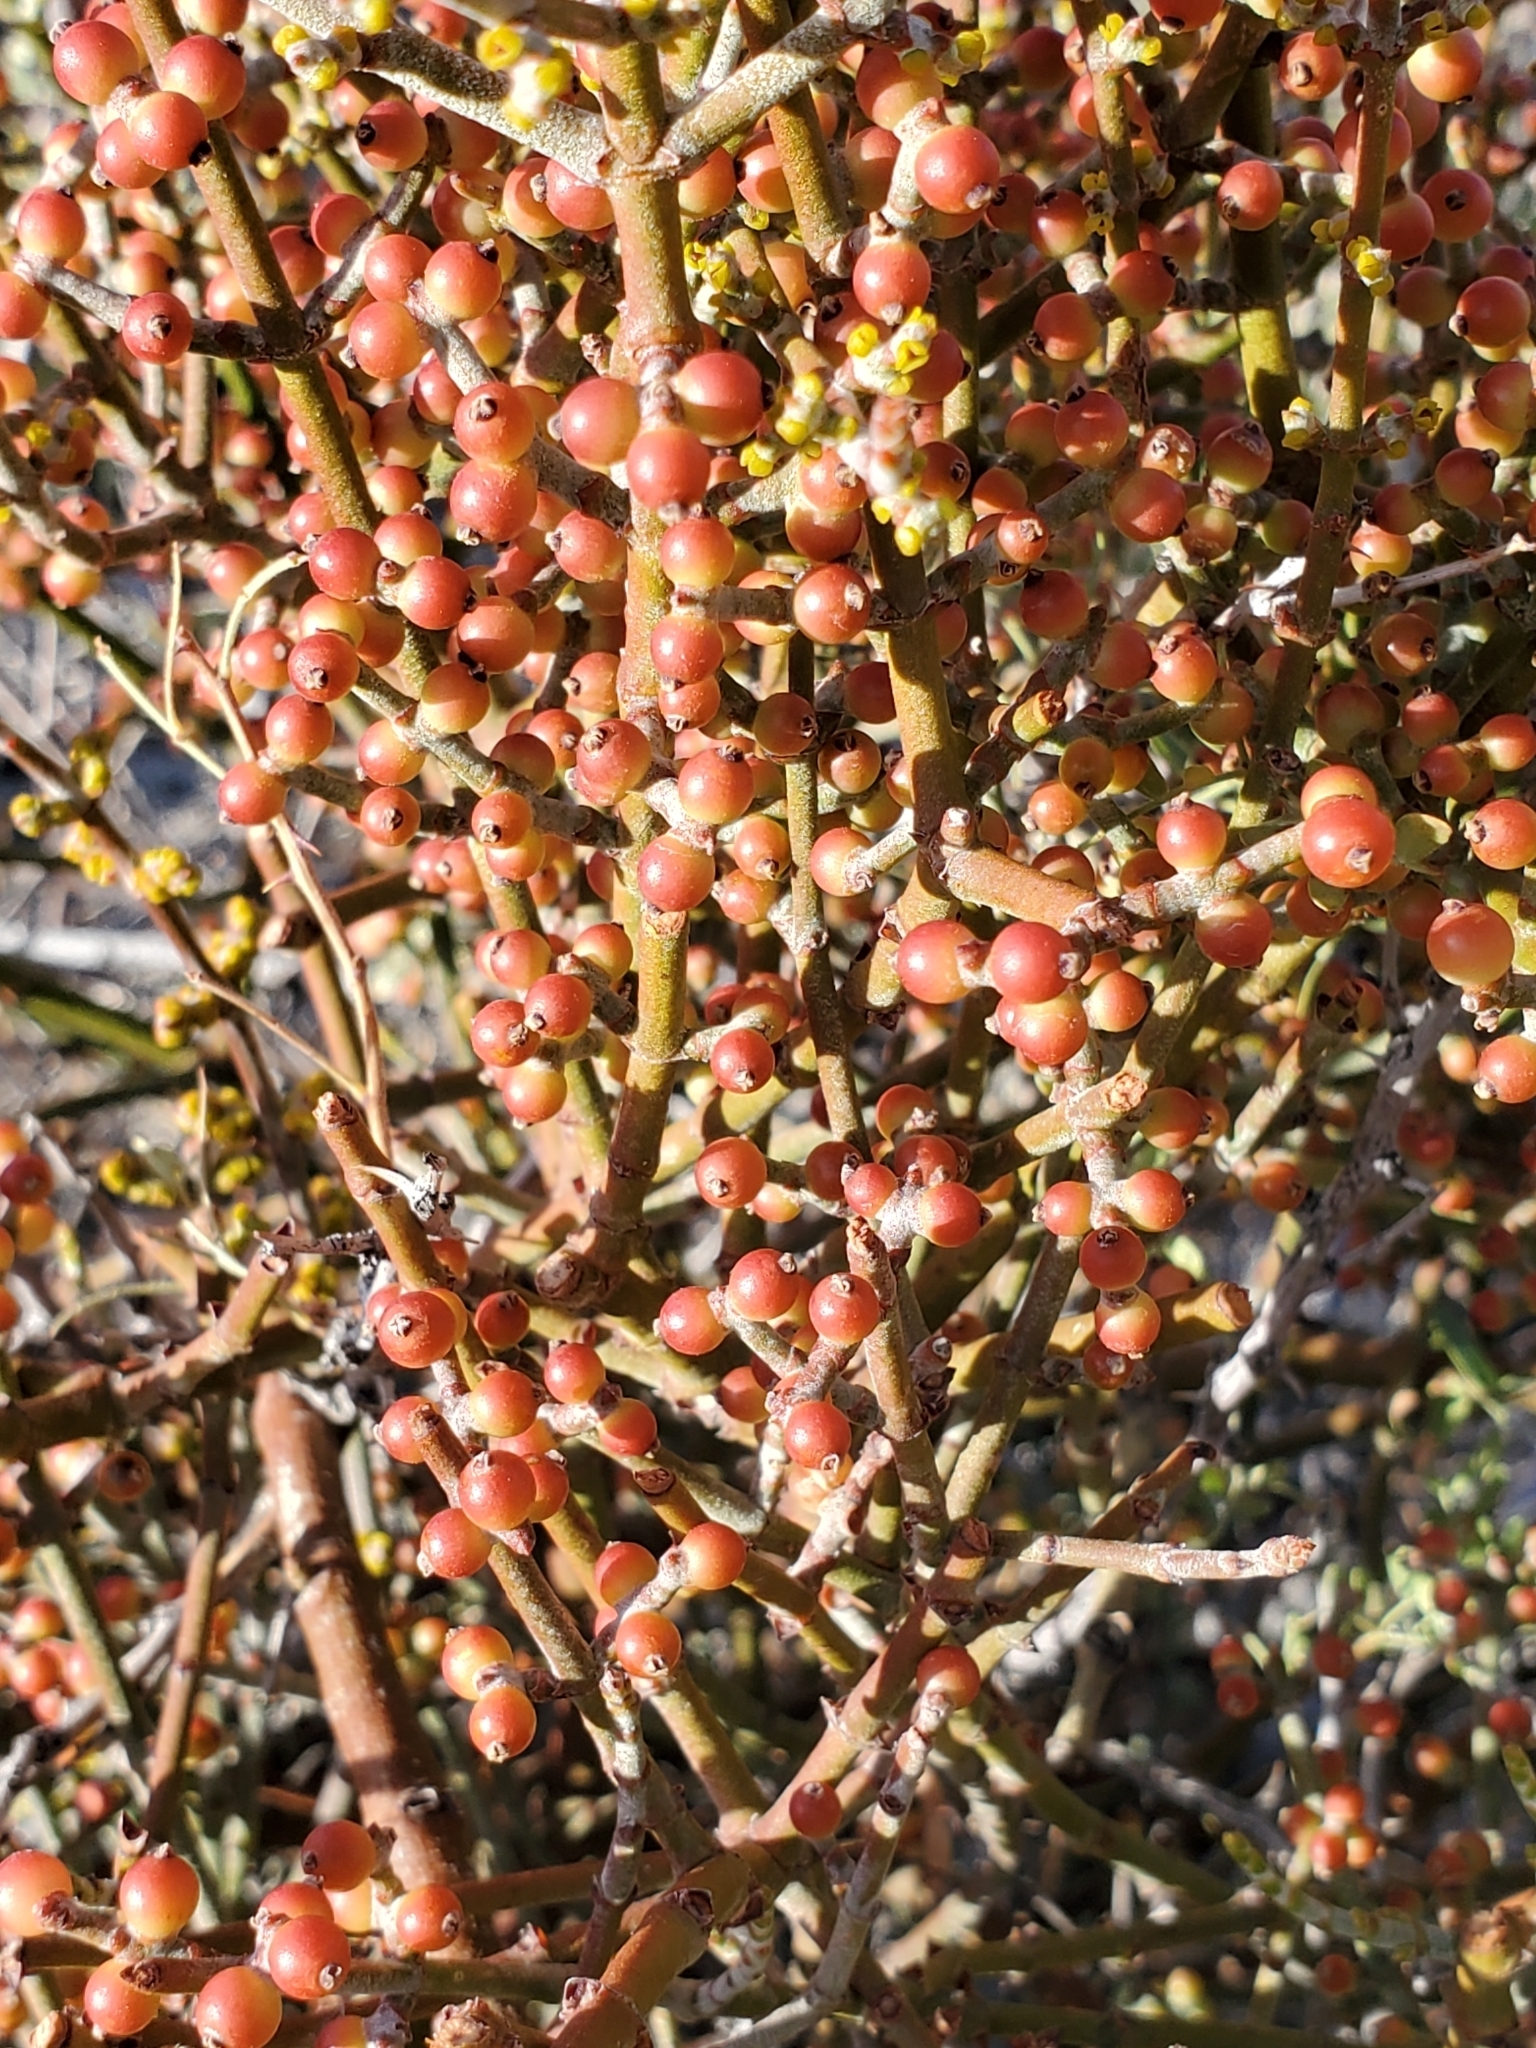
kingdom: Plantae
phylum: Tracheophyta
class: Magnoliopsida
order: Santalales
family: Viscaceae
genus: Phoradendron
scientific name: Phoradendron californicum
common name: Acacia mistletoe
